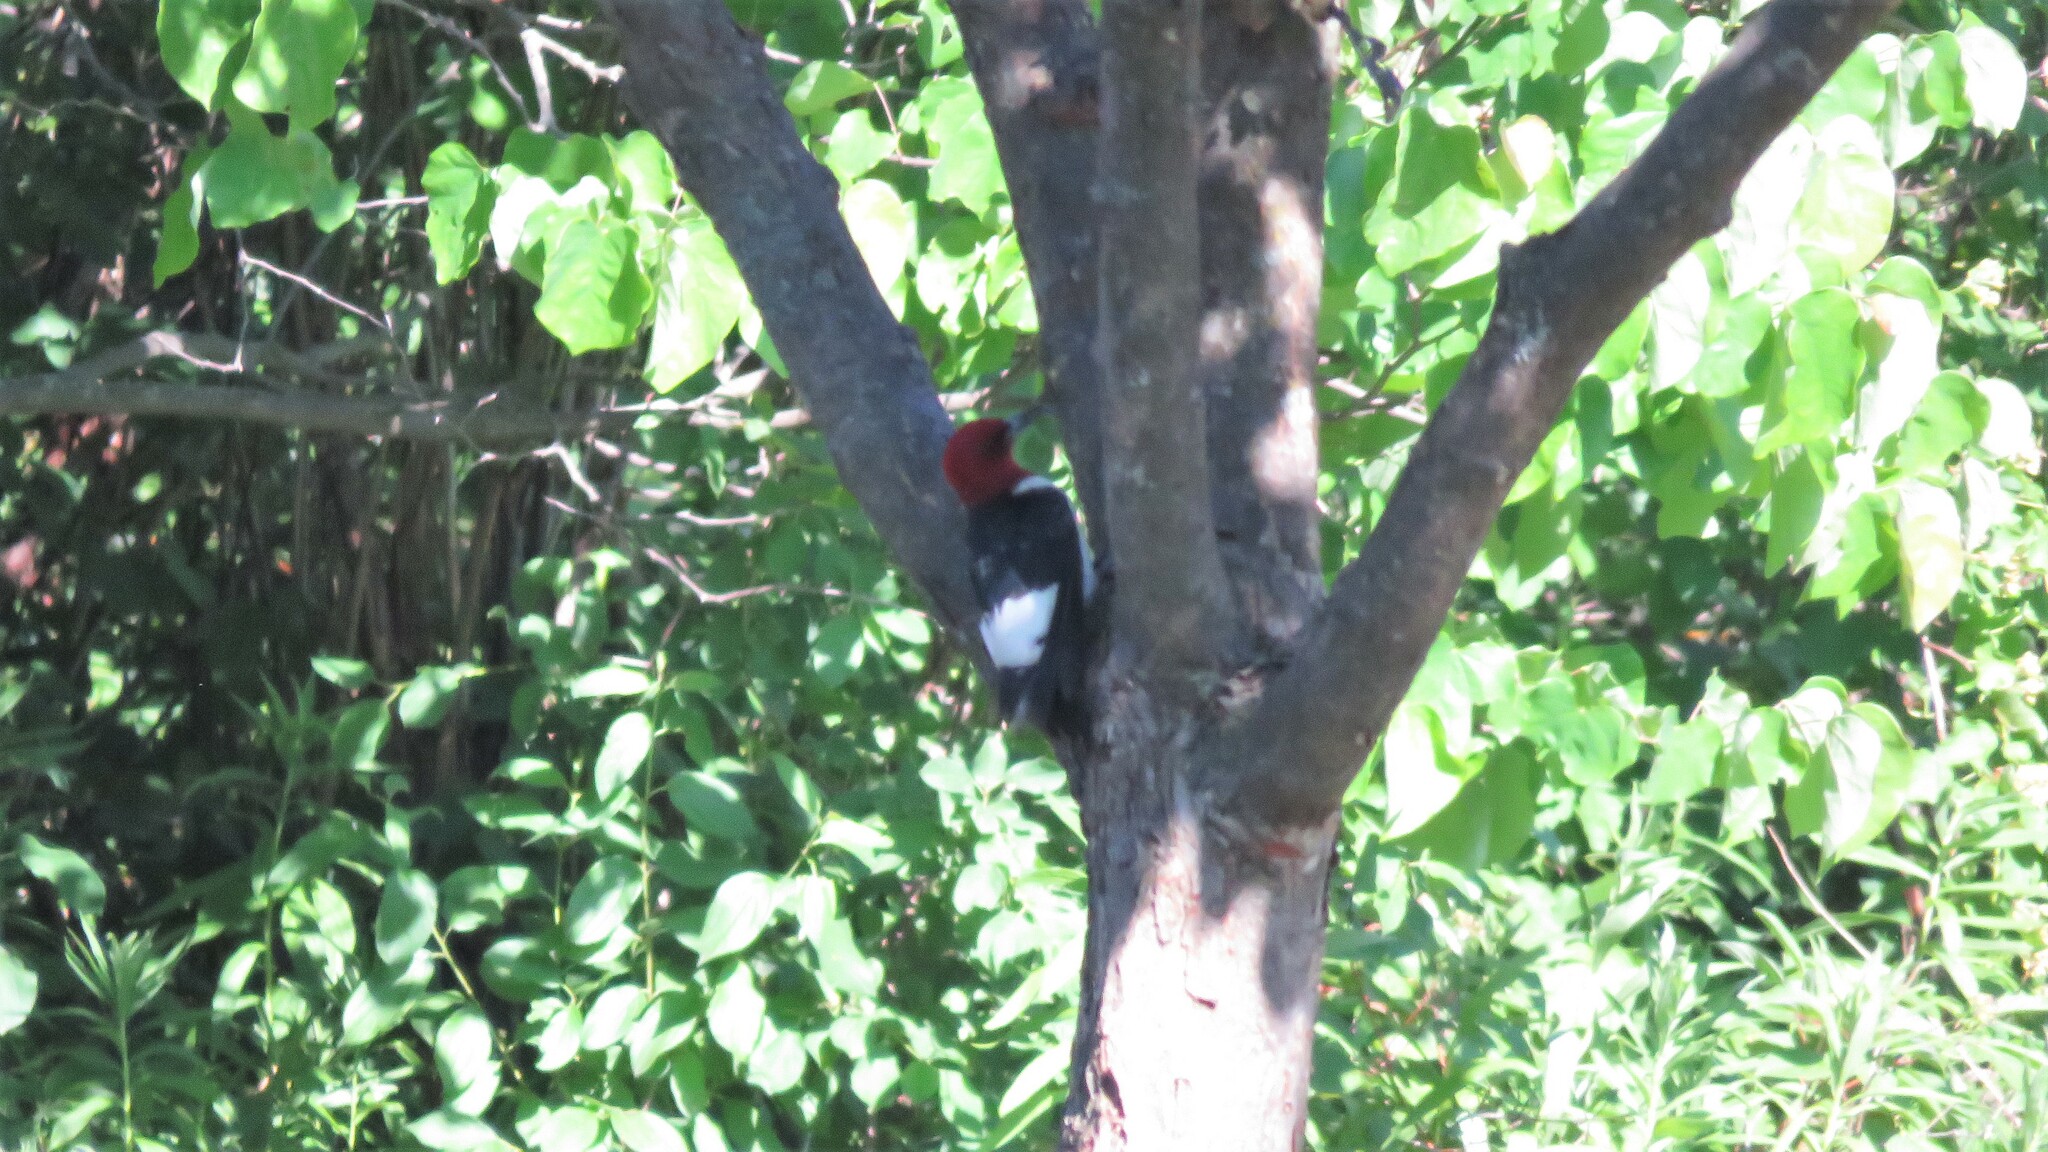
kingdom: Animalia
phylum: Chordata
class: Aves
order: Piciformes
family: Picidae
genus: Melanerpes
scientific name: Melanerpes erythrocephalus
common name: Red-headed woodpecker
